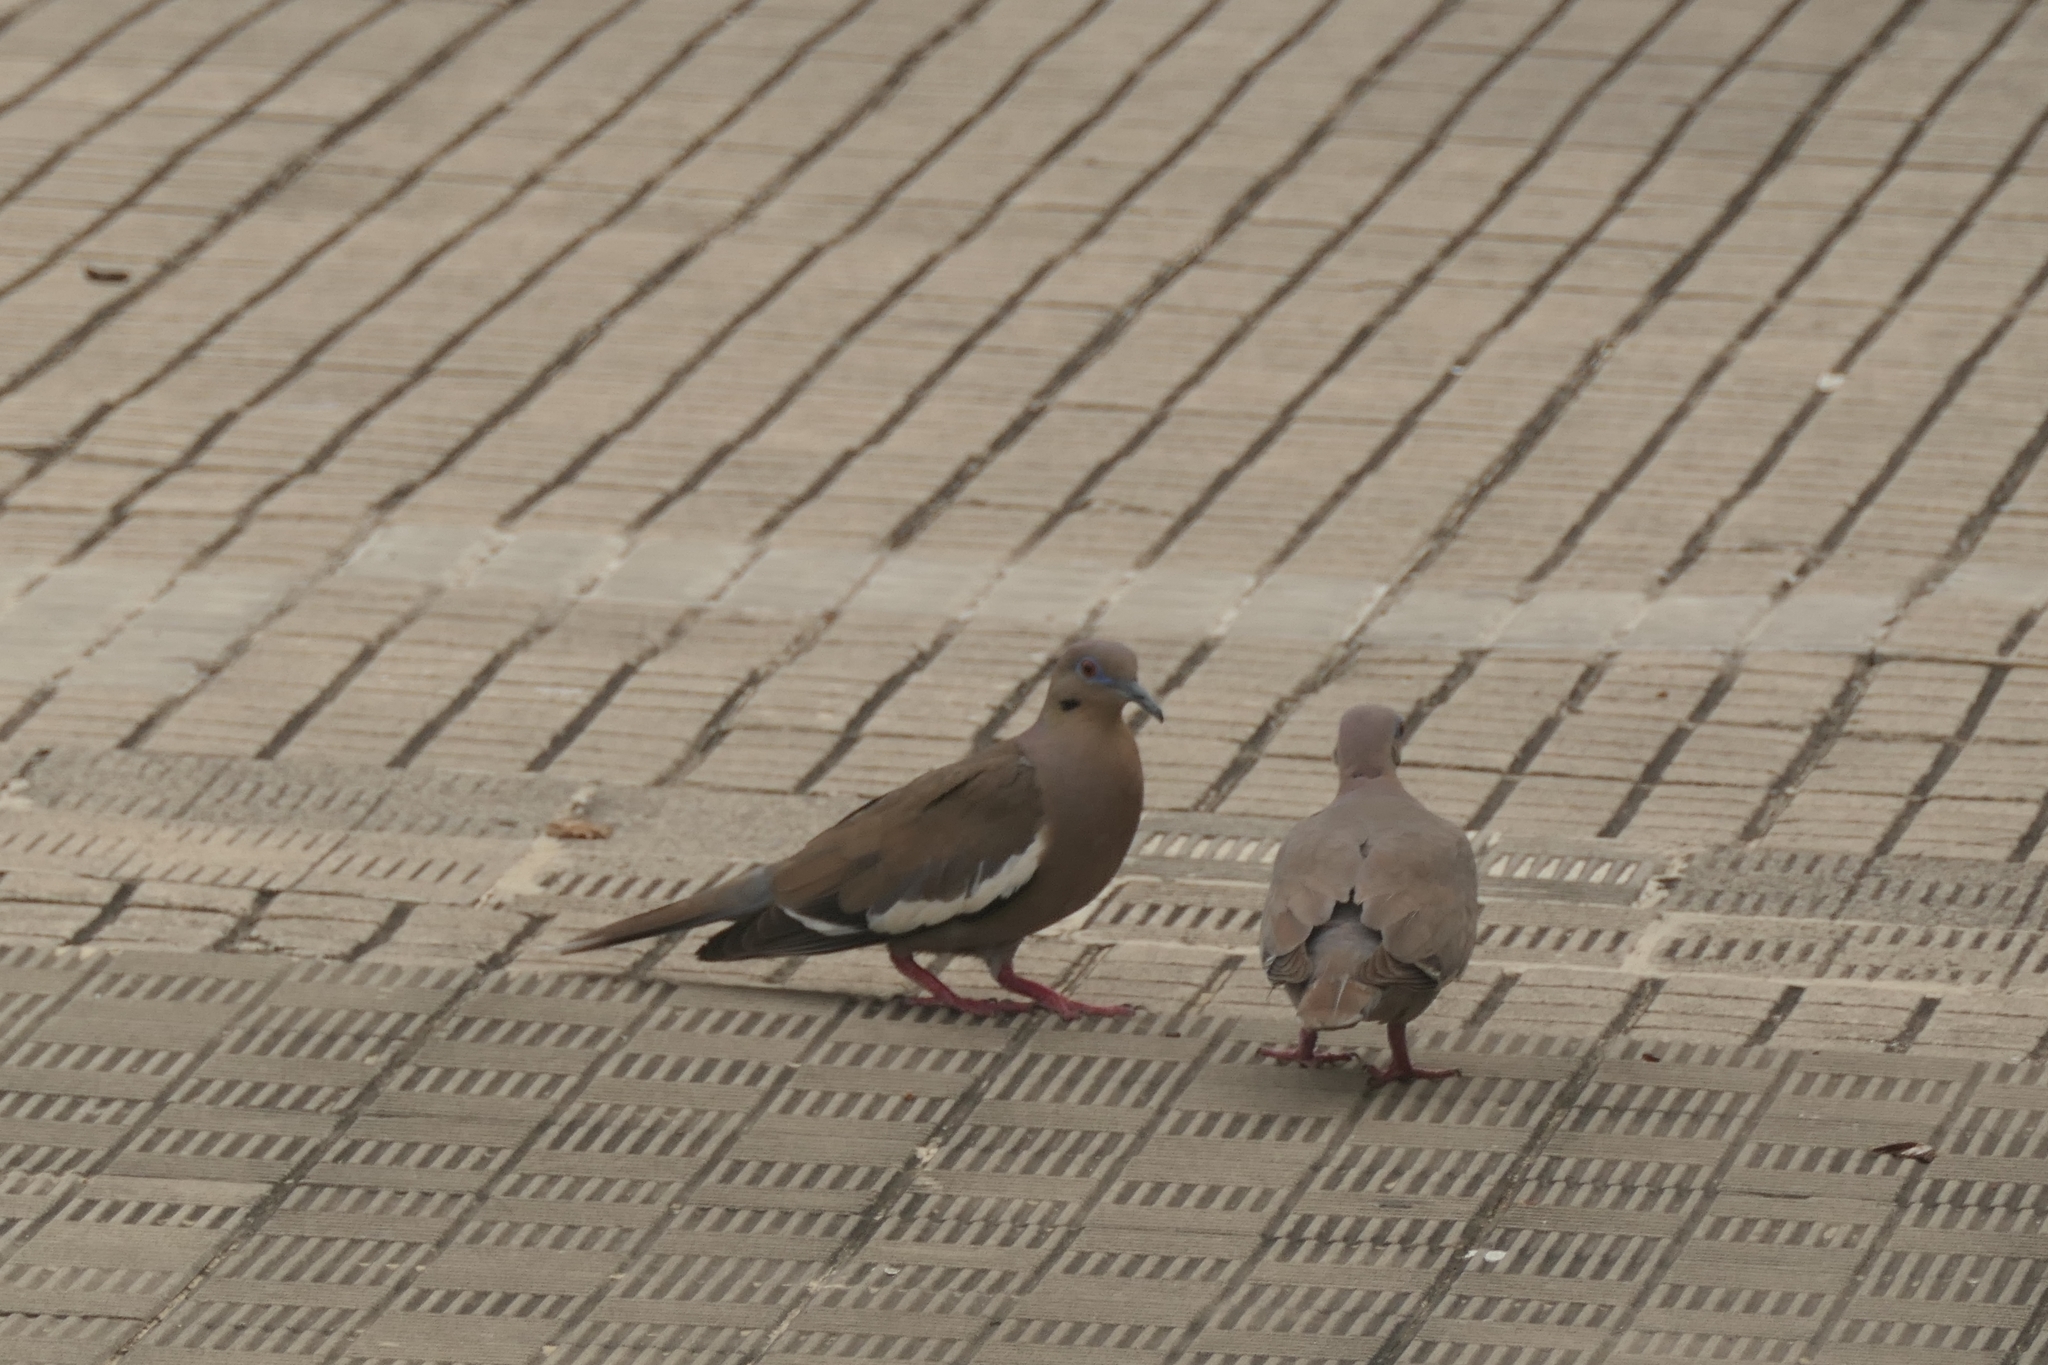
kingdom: Animalia
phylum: Chordata
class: Aves
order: Columbiformes
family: Columbidae
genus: Zenaida
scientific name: Zenaida asiatica
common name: White-winged dove
